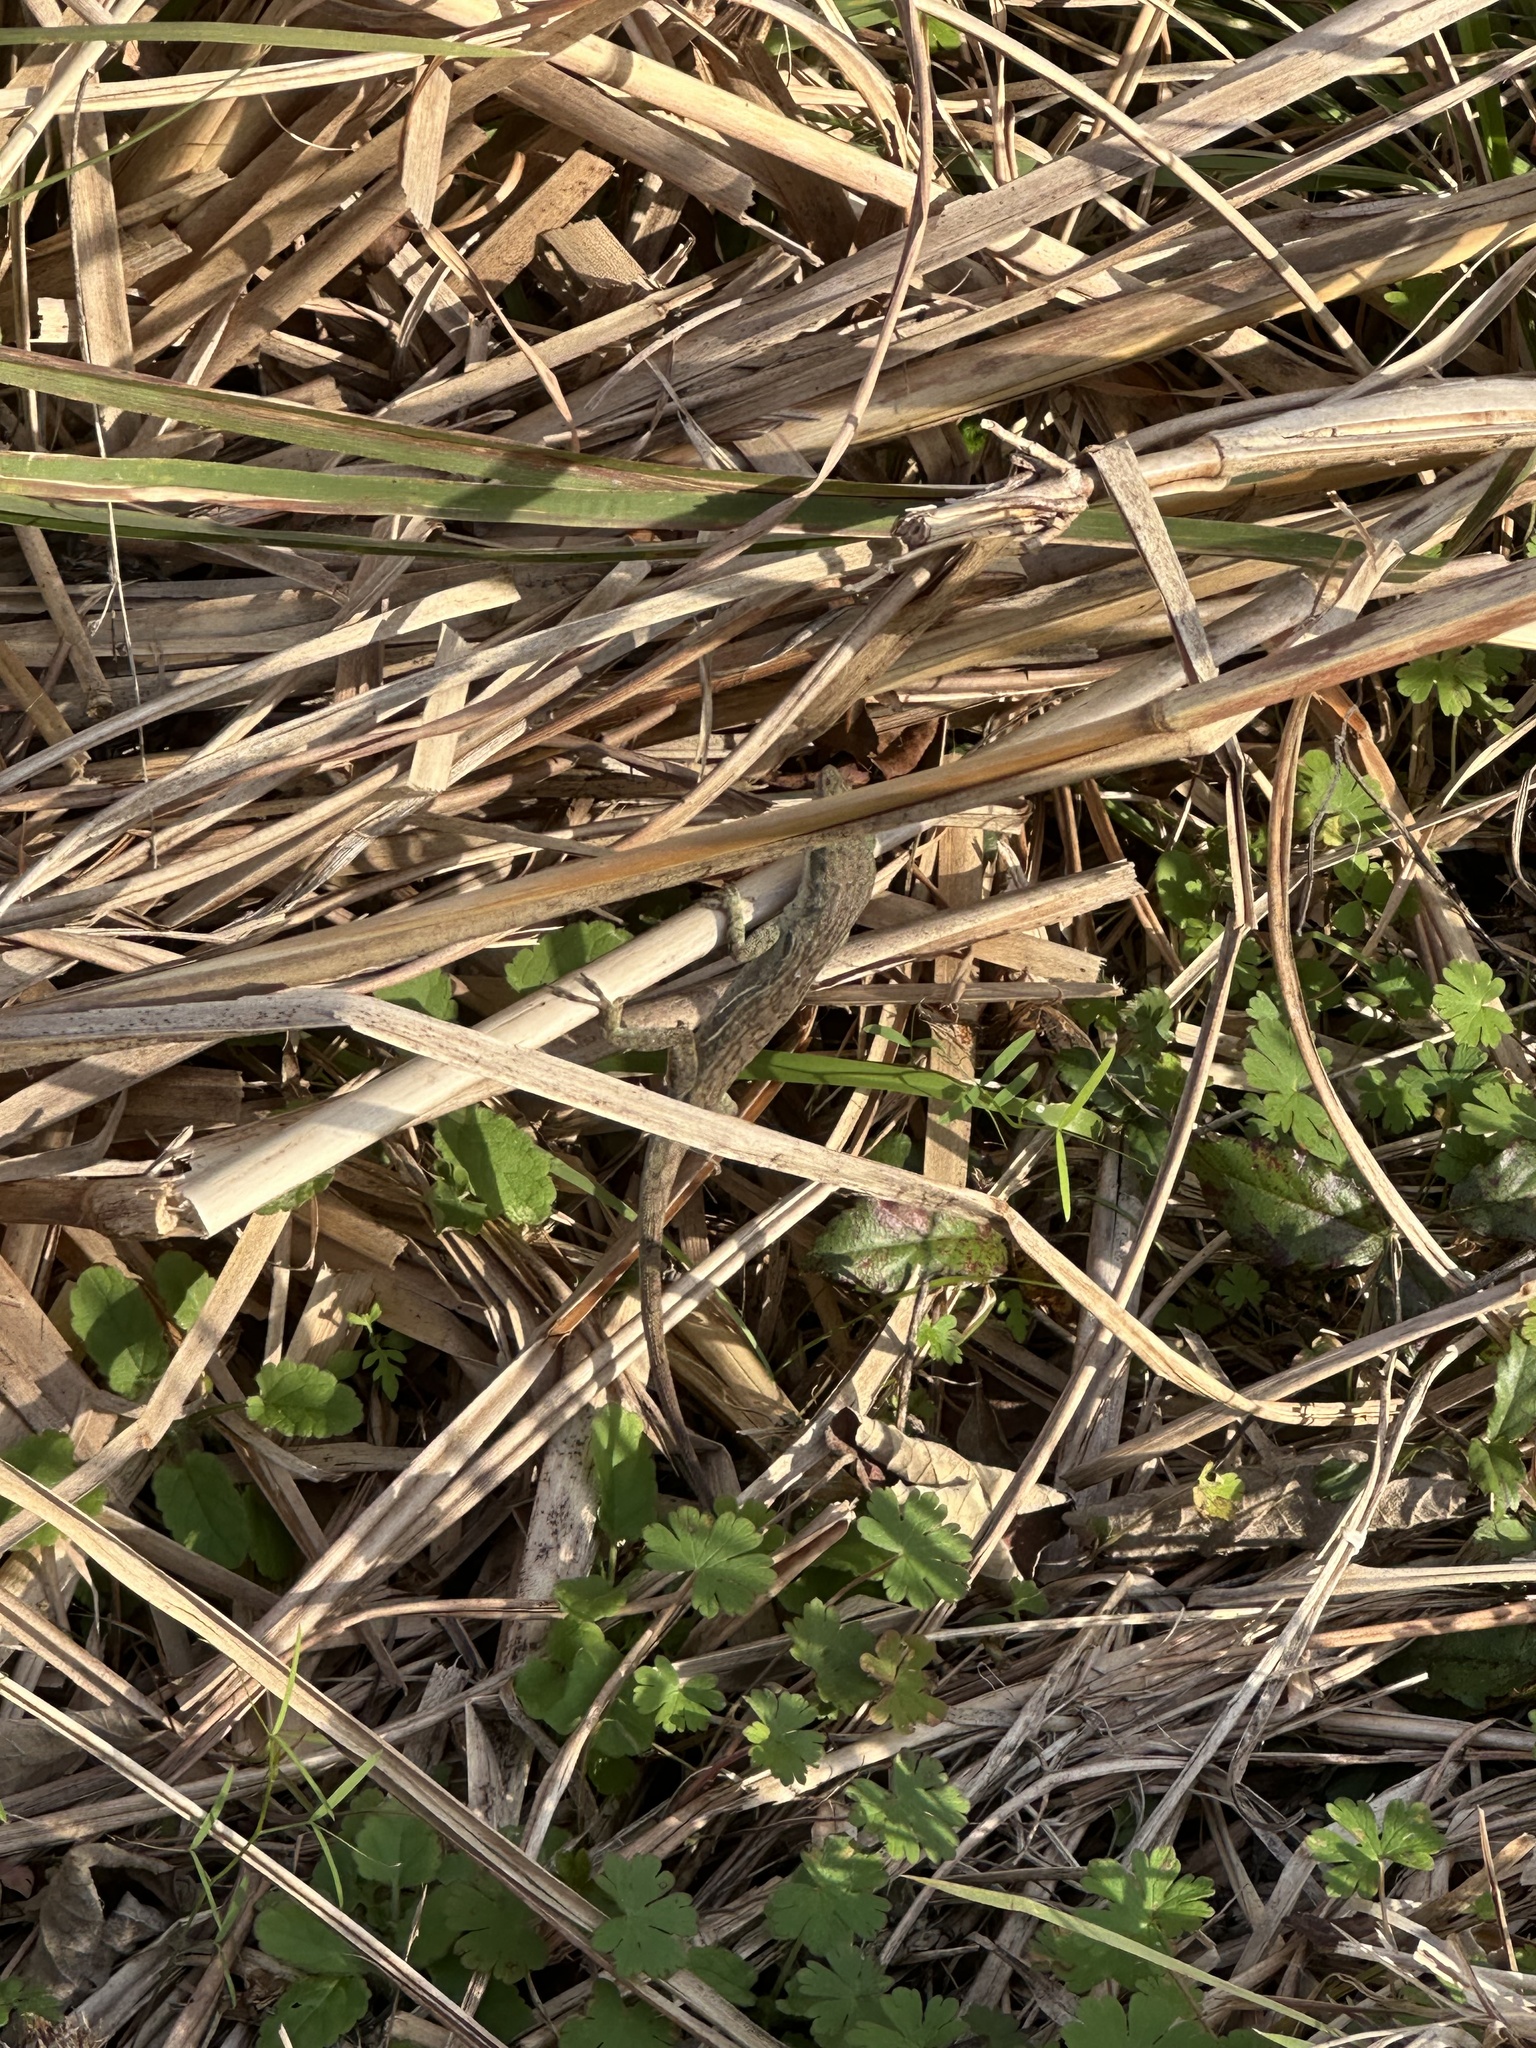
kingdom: Animalia
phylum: Chordata
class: Squamata
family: Dactyloidae
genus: Anolis
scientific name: Anolis carolinensis
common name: Green anole
